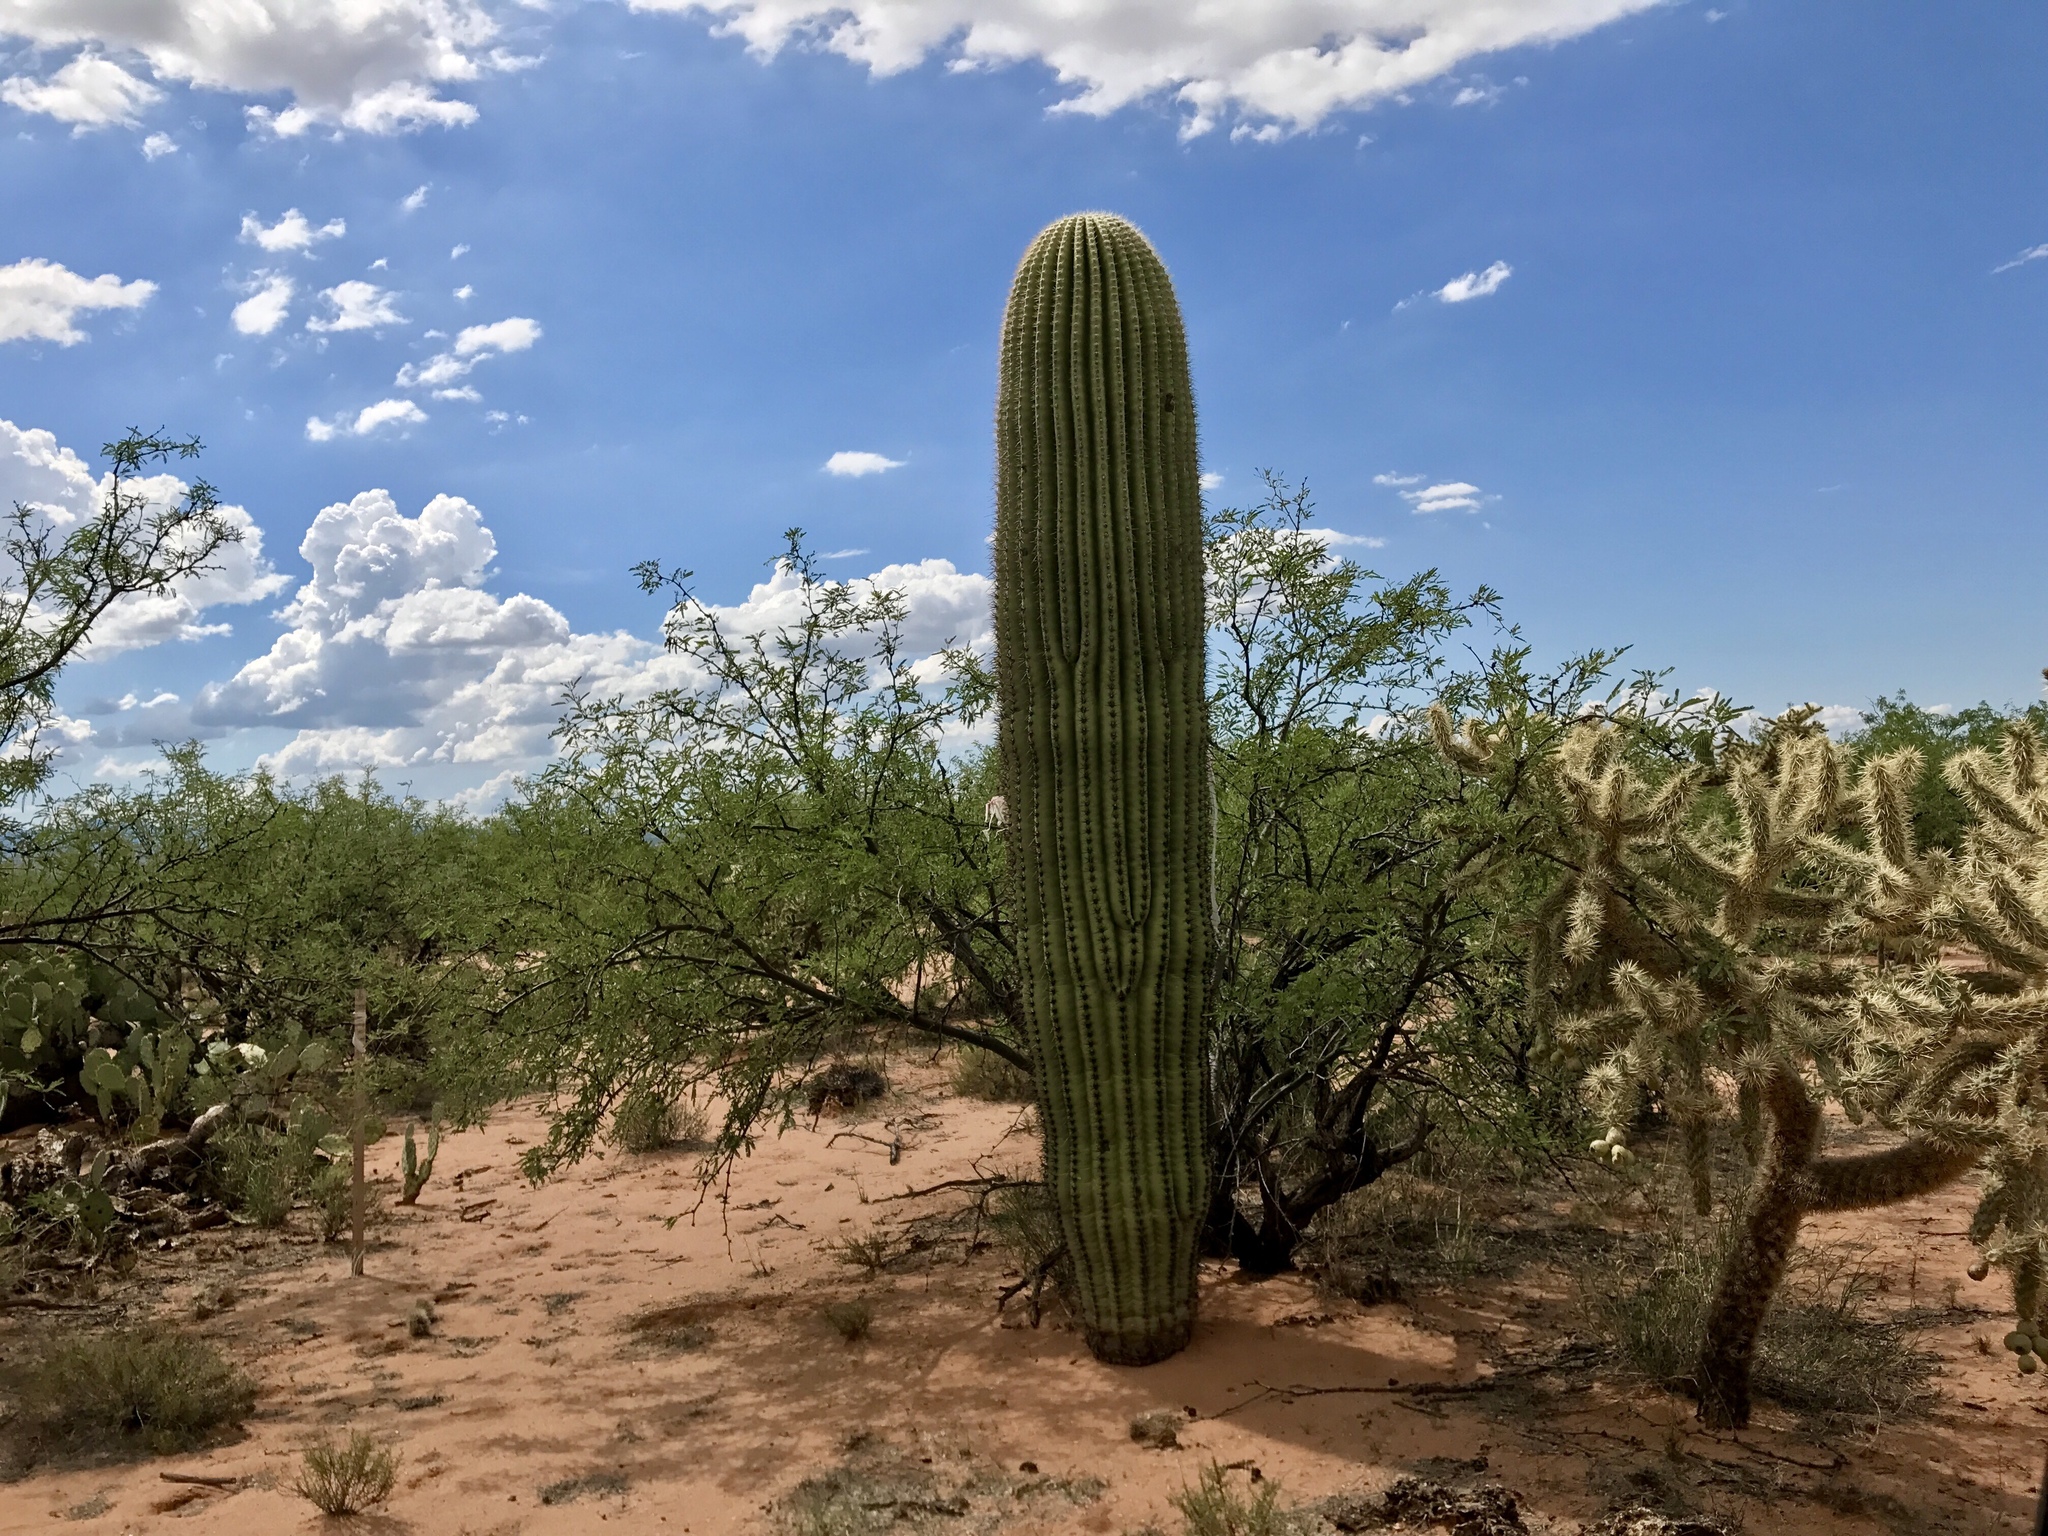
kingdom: Plantae
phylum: Tracheophyta
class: Magnoliopsida
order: Caryophyllales
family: Cactaceae
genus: Carnegiea
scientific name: Carnegiea gigantea
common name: Saguaro
